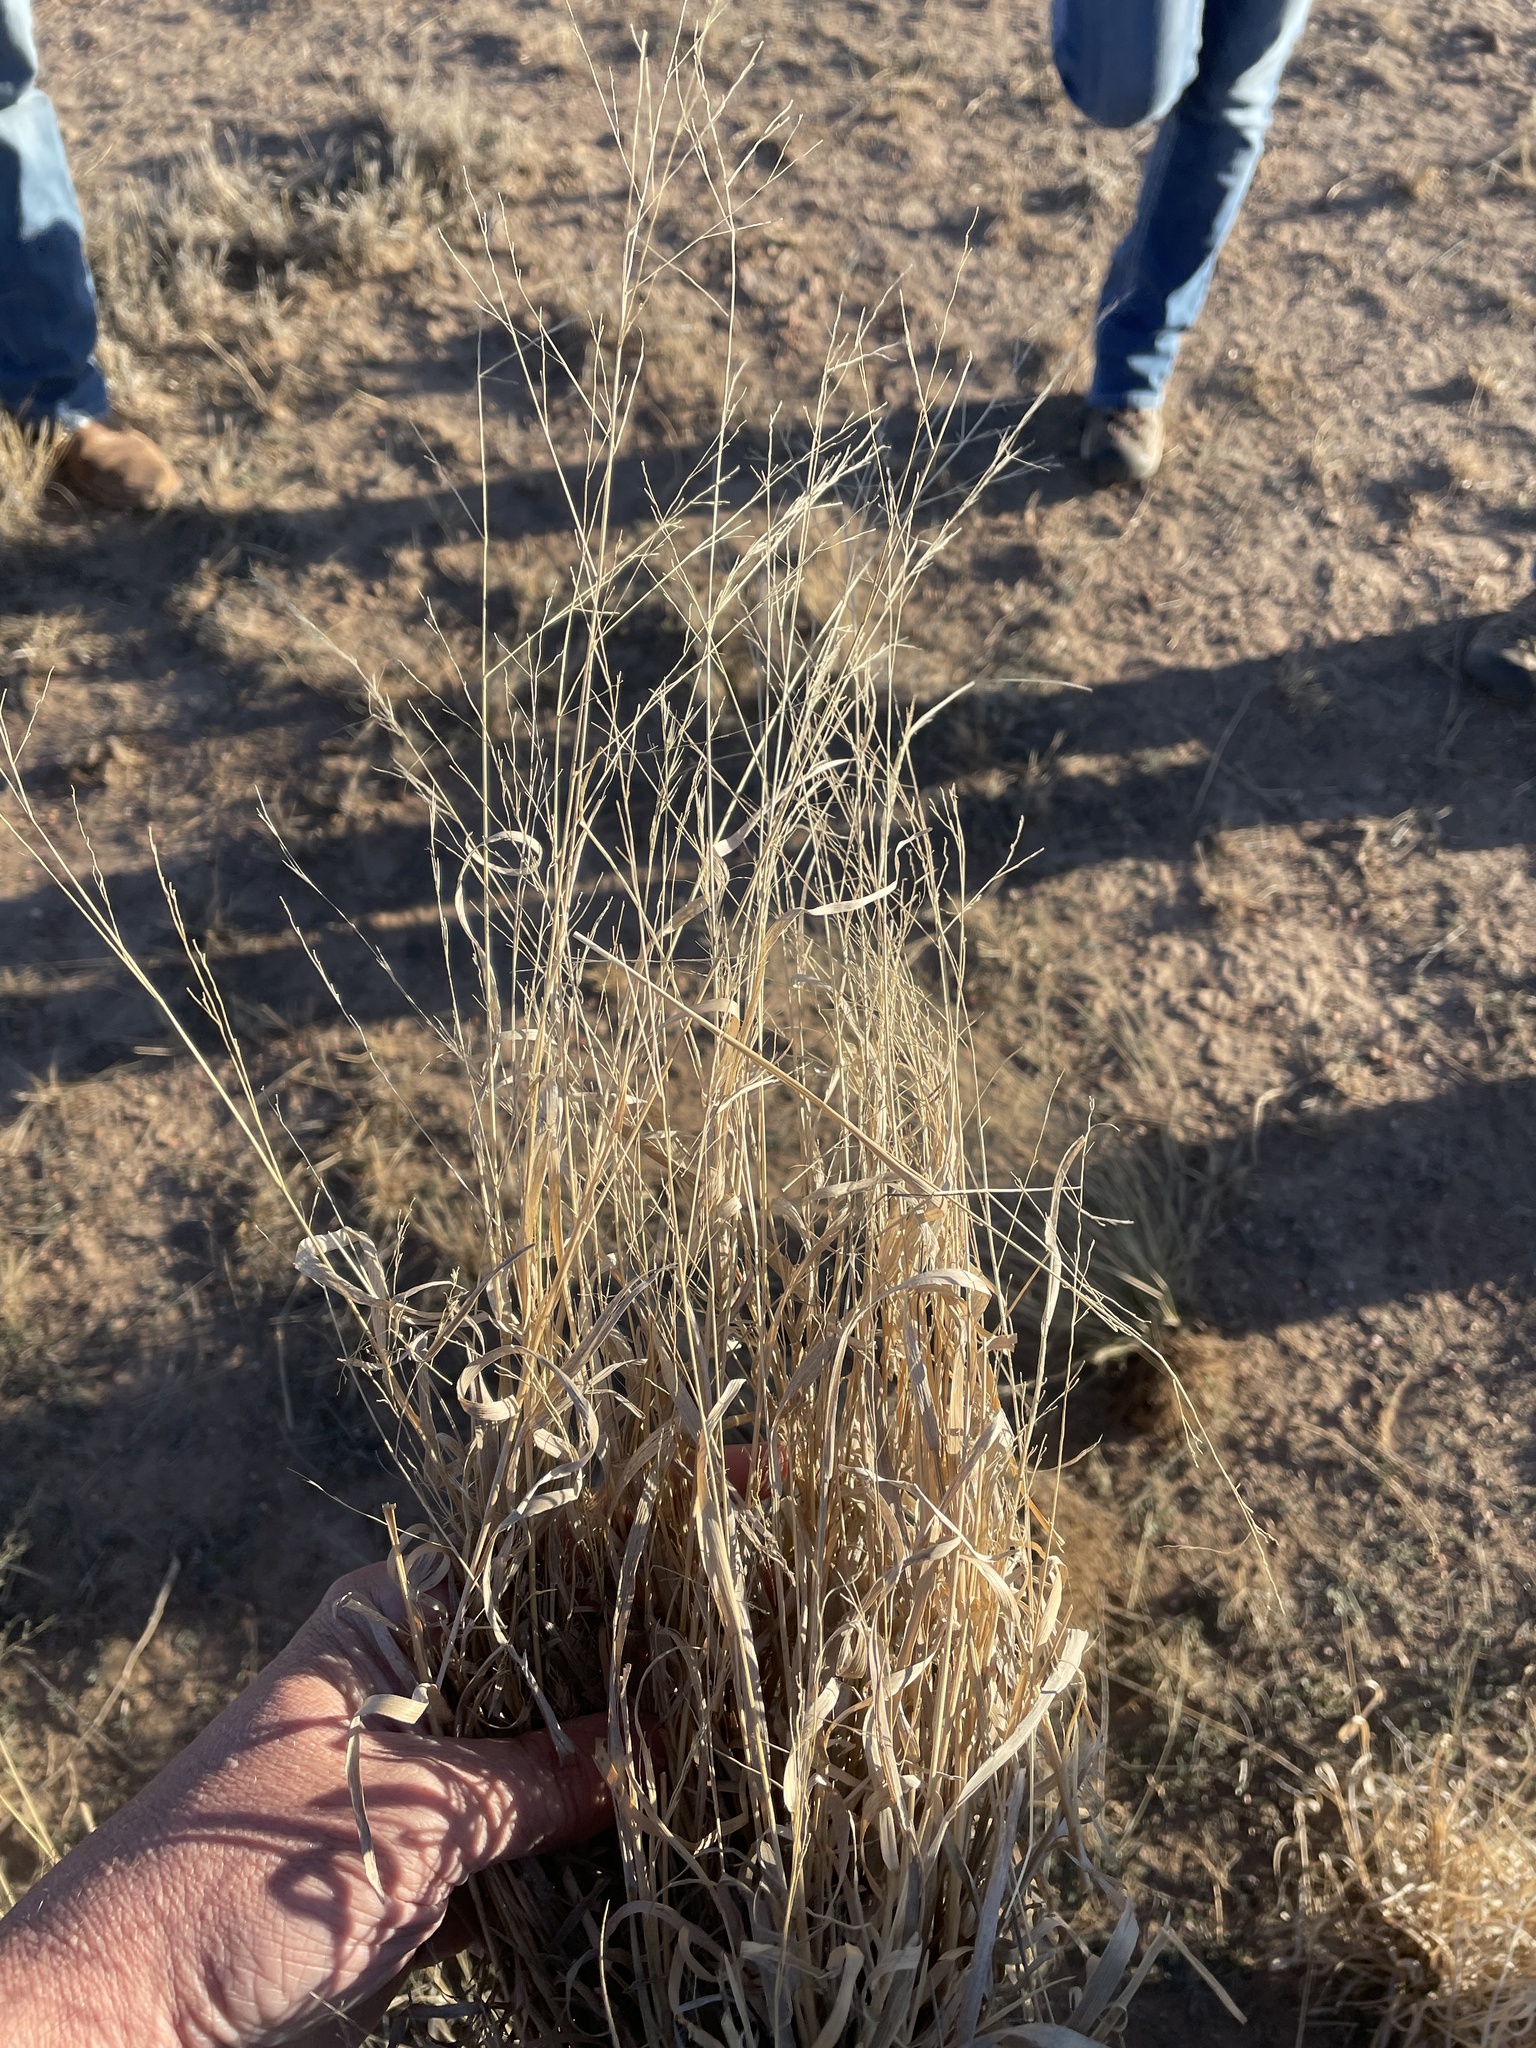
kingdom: Plantae
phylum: Tracheophyta
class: Liliopsida
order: Poales
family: Poaceae
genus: Panicum
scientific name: Panicum hallii
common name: Hall's witchgrass
